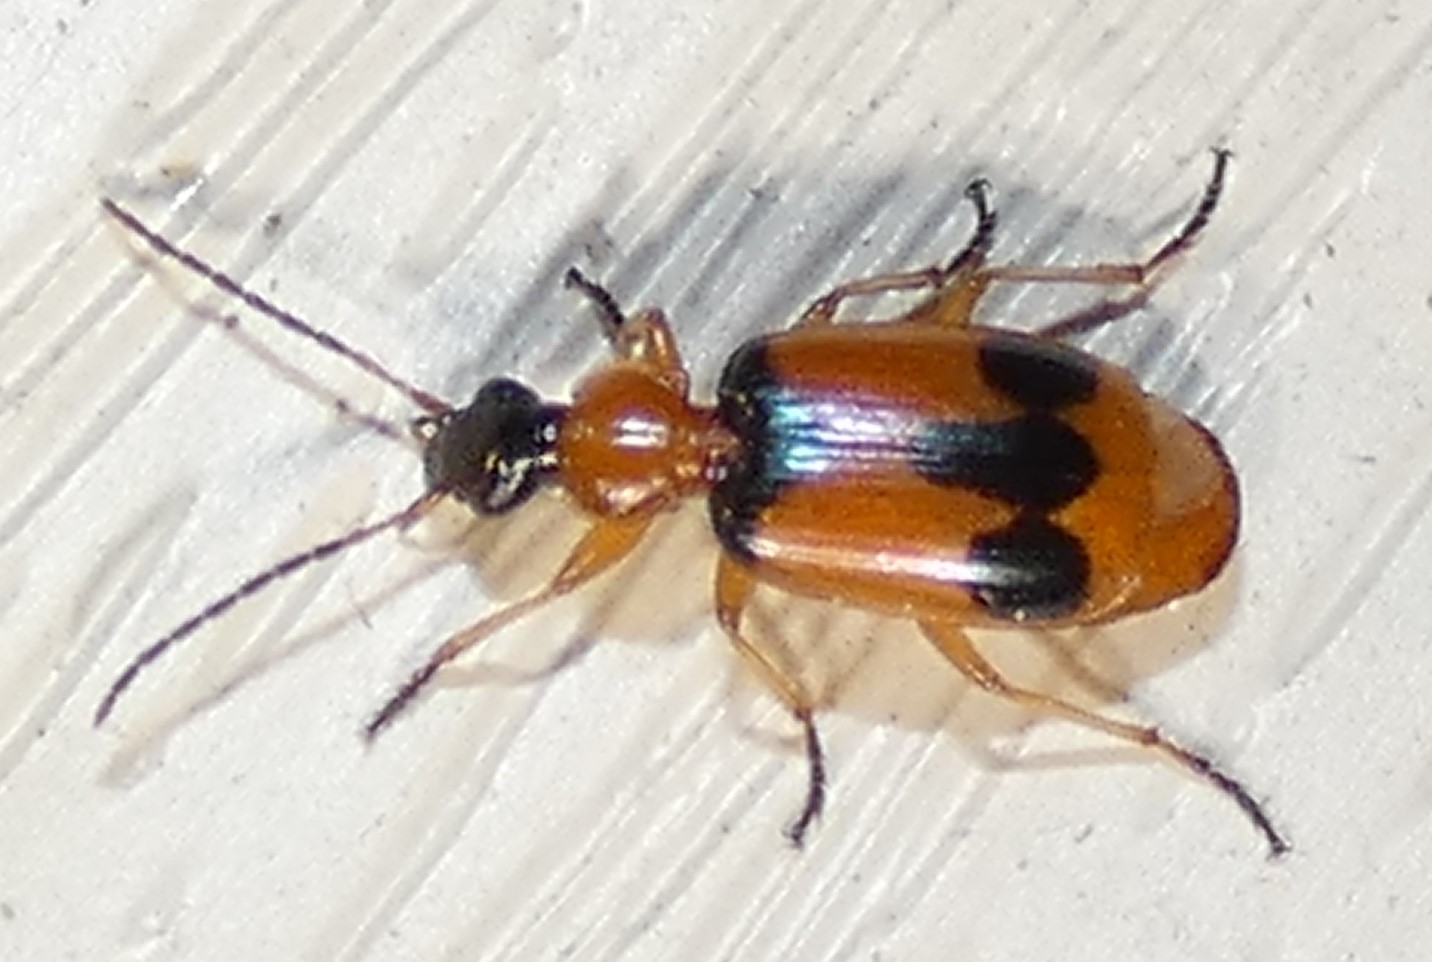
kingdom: Animalia
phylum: Arthropoda
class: Insecta
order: Coleoptera
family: Carabidae
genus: Lebia
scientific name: Lebia pulchella
